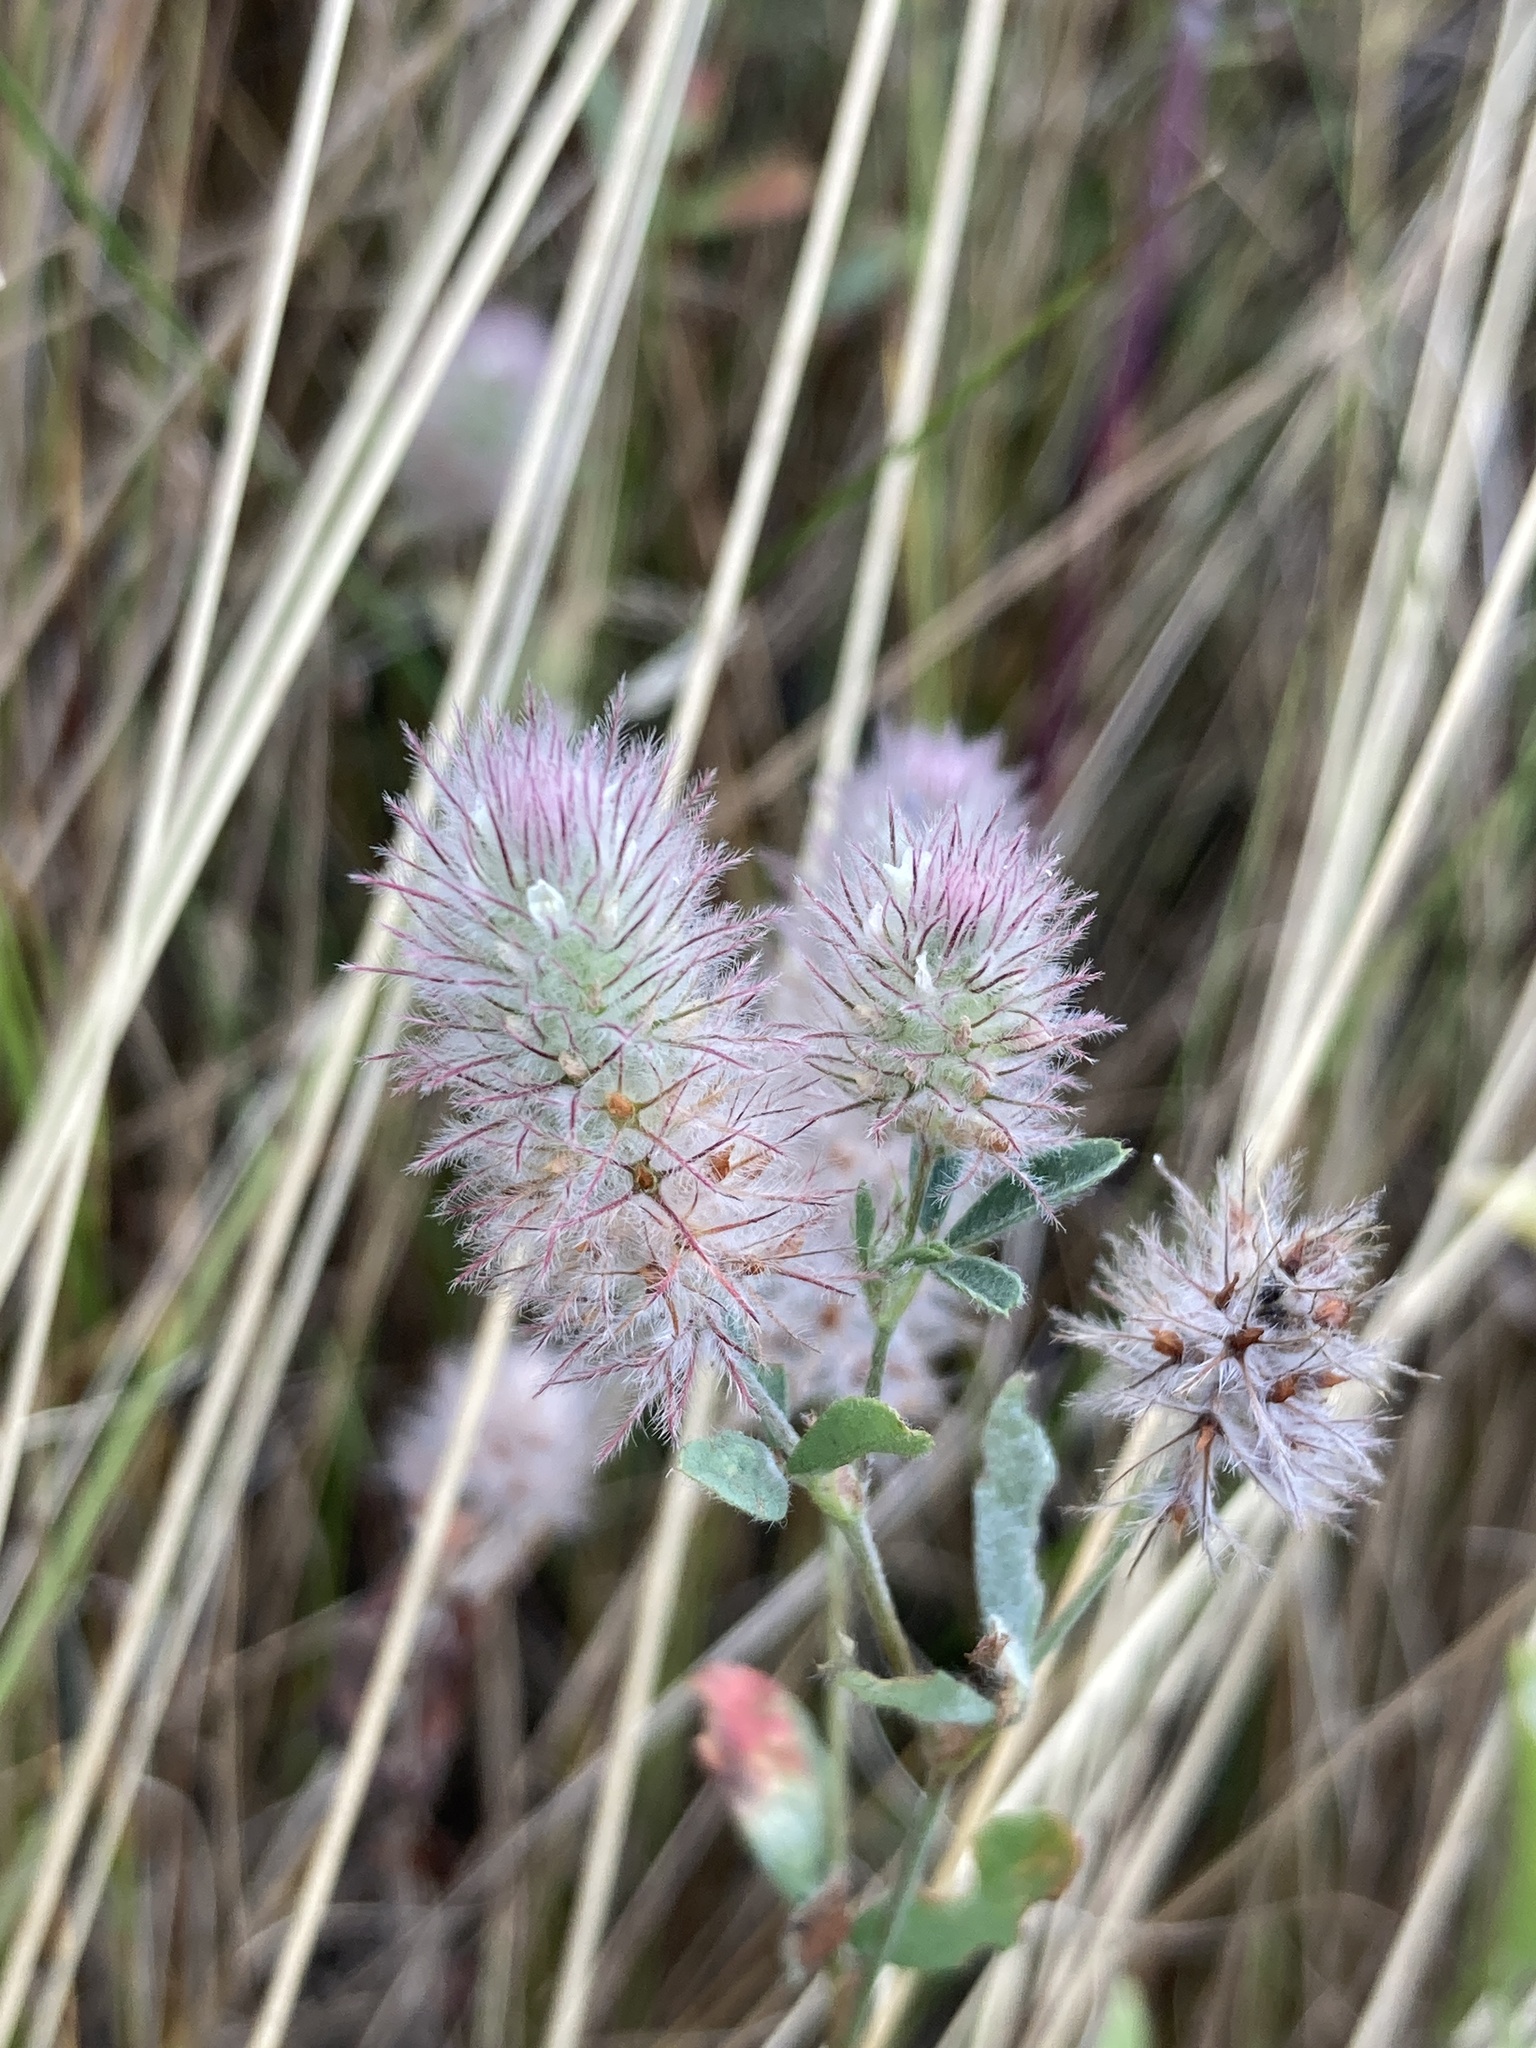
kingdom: Plantae
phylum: Tracheophyta
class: Magnoliopsida
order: Fabales
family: Fabaceae
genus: Trifolium
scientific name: Trifolium arvense
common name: Hare's-foot clover
